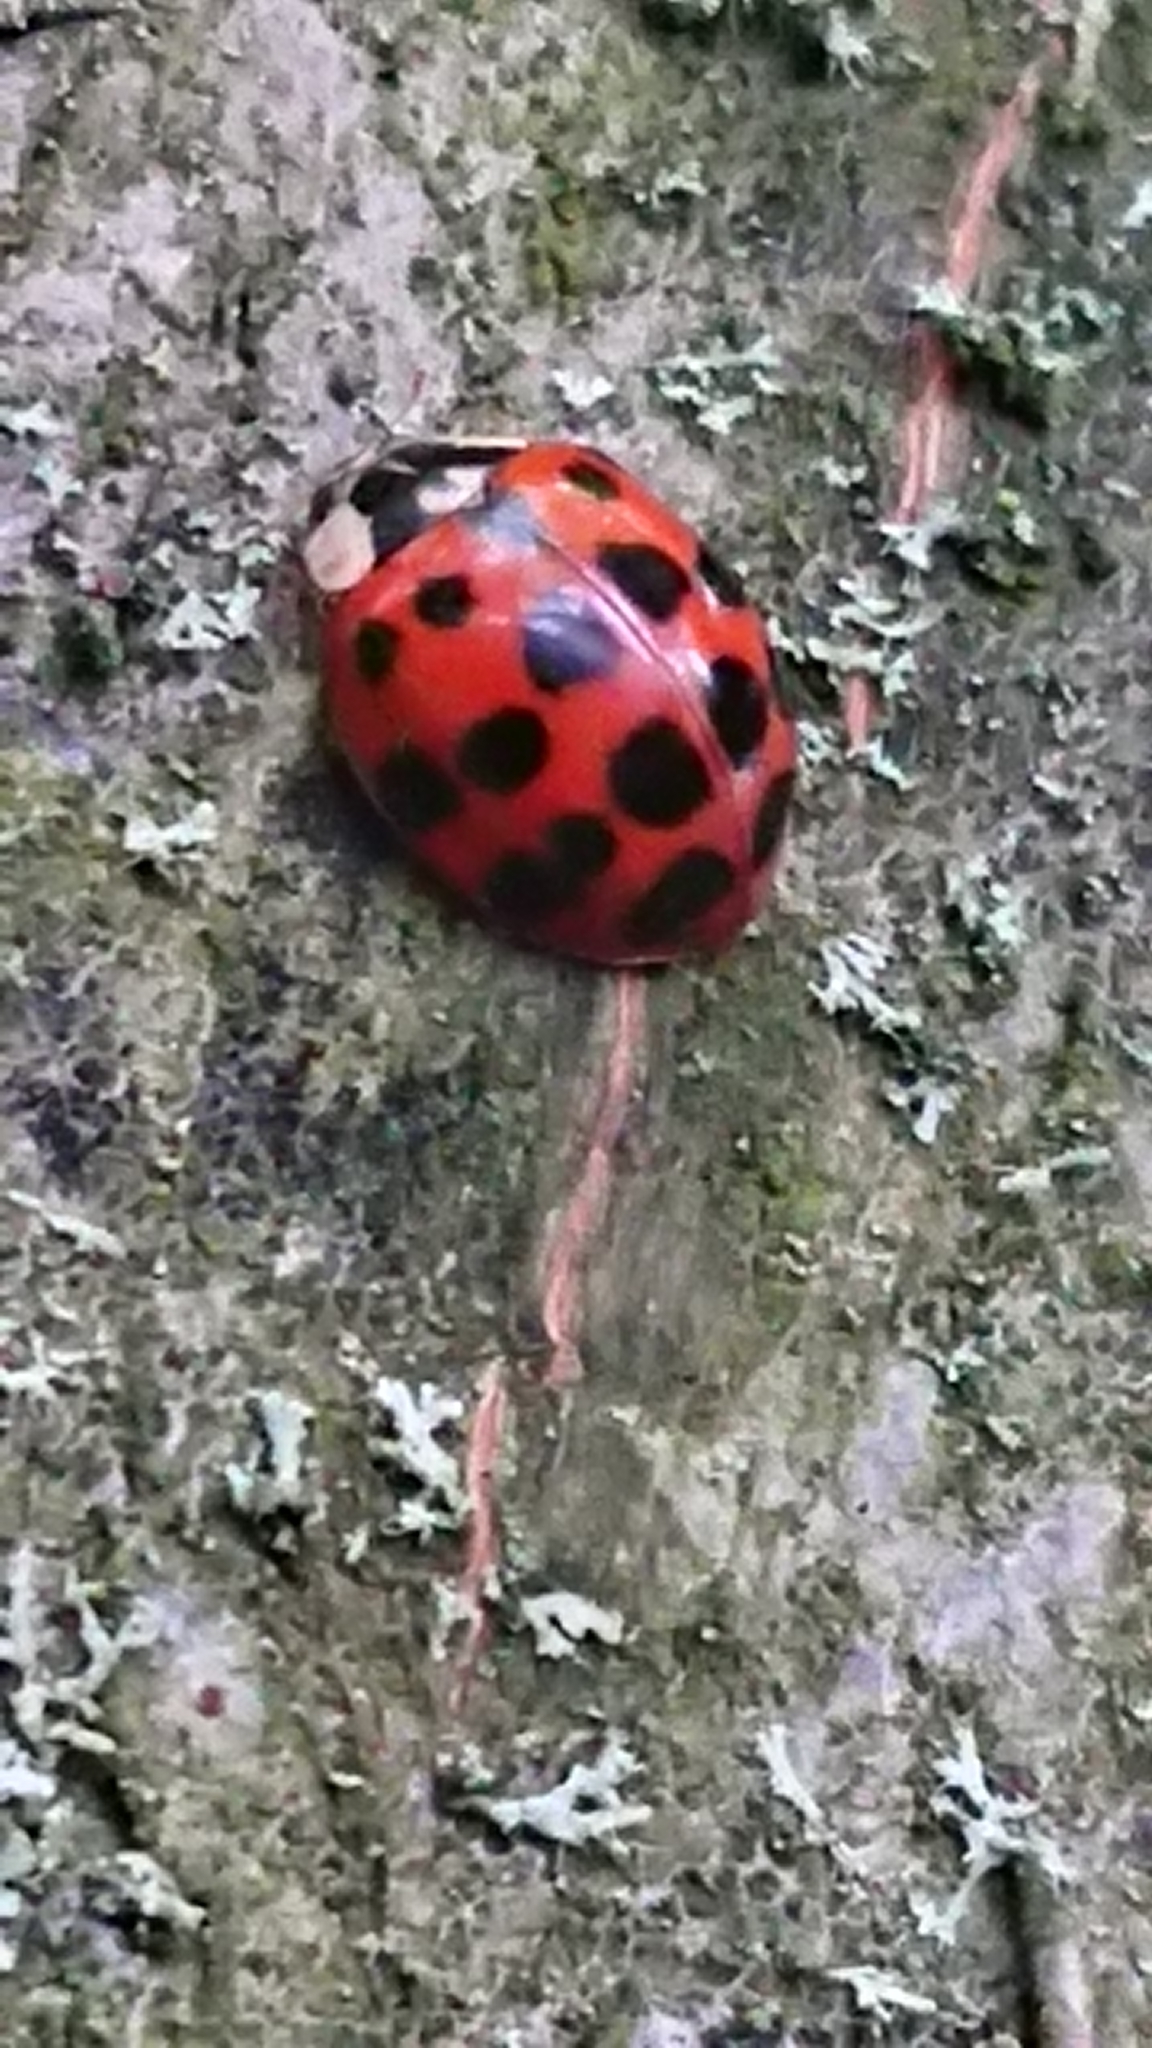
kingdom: Animalia
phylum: Arthropoda
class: Insecta
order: Coleoptera
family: Coccinellidae
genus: Harmonia
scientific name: Harmonia axyridis
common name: Harlequin ladybird
